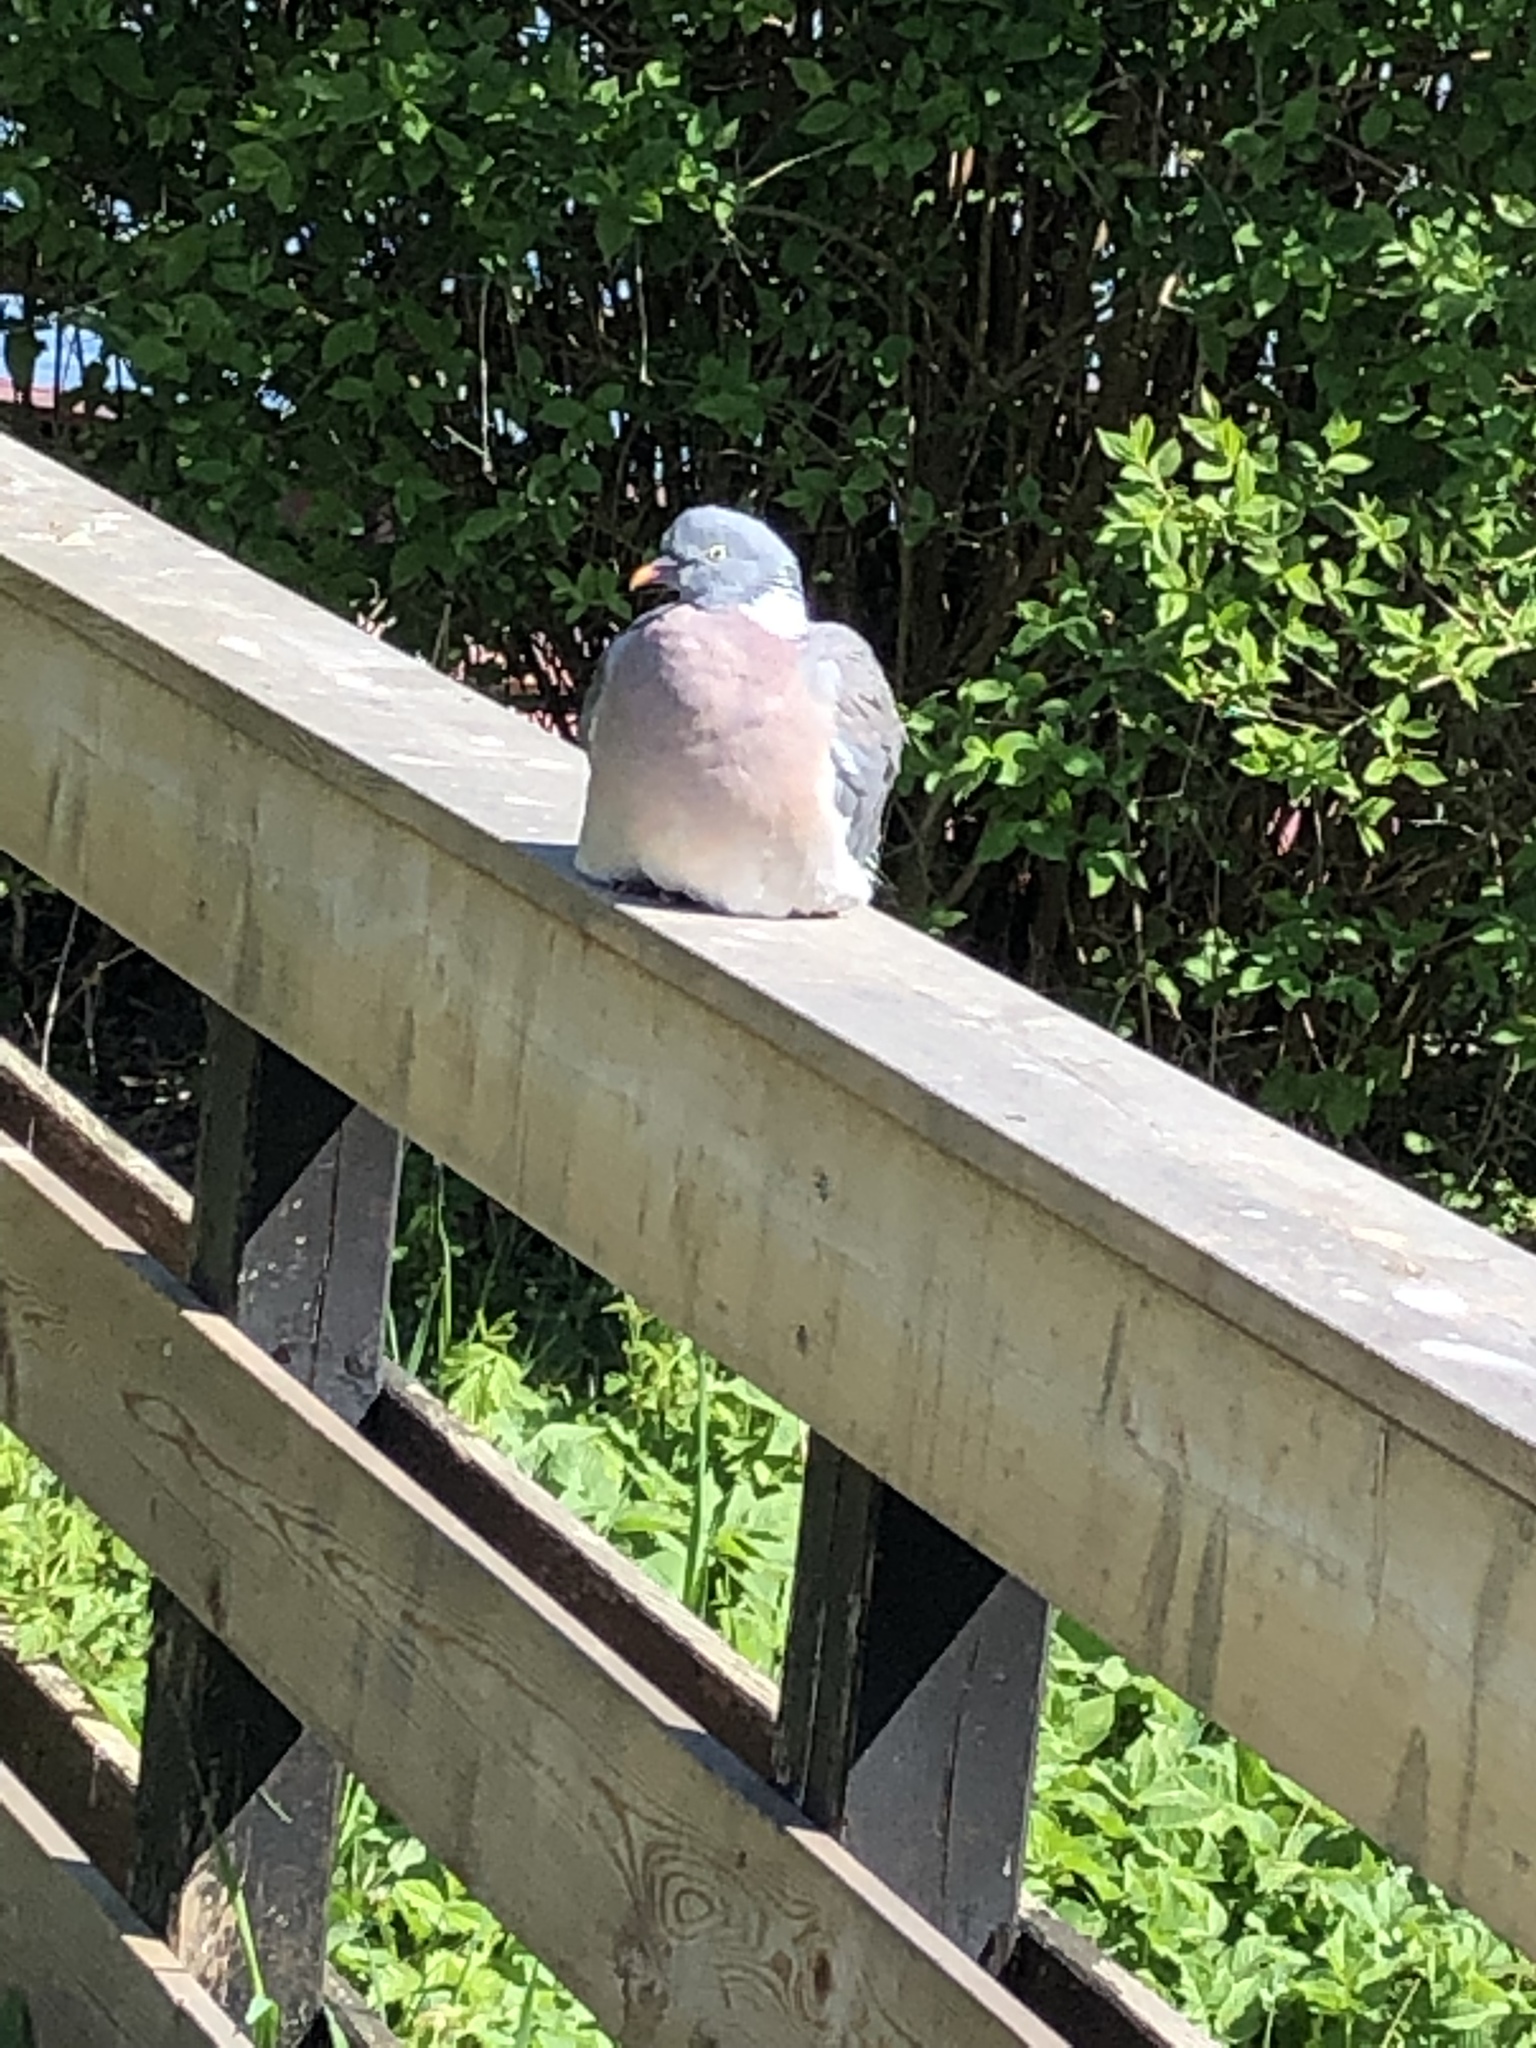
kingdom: Animalia
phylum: Chordata
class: Aves
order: Columbiformes
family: Columbidae
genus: Columba
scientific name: Columba palumbus
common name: Common wood pigeon
